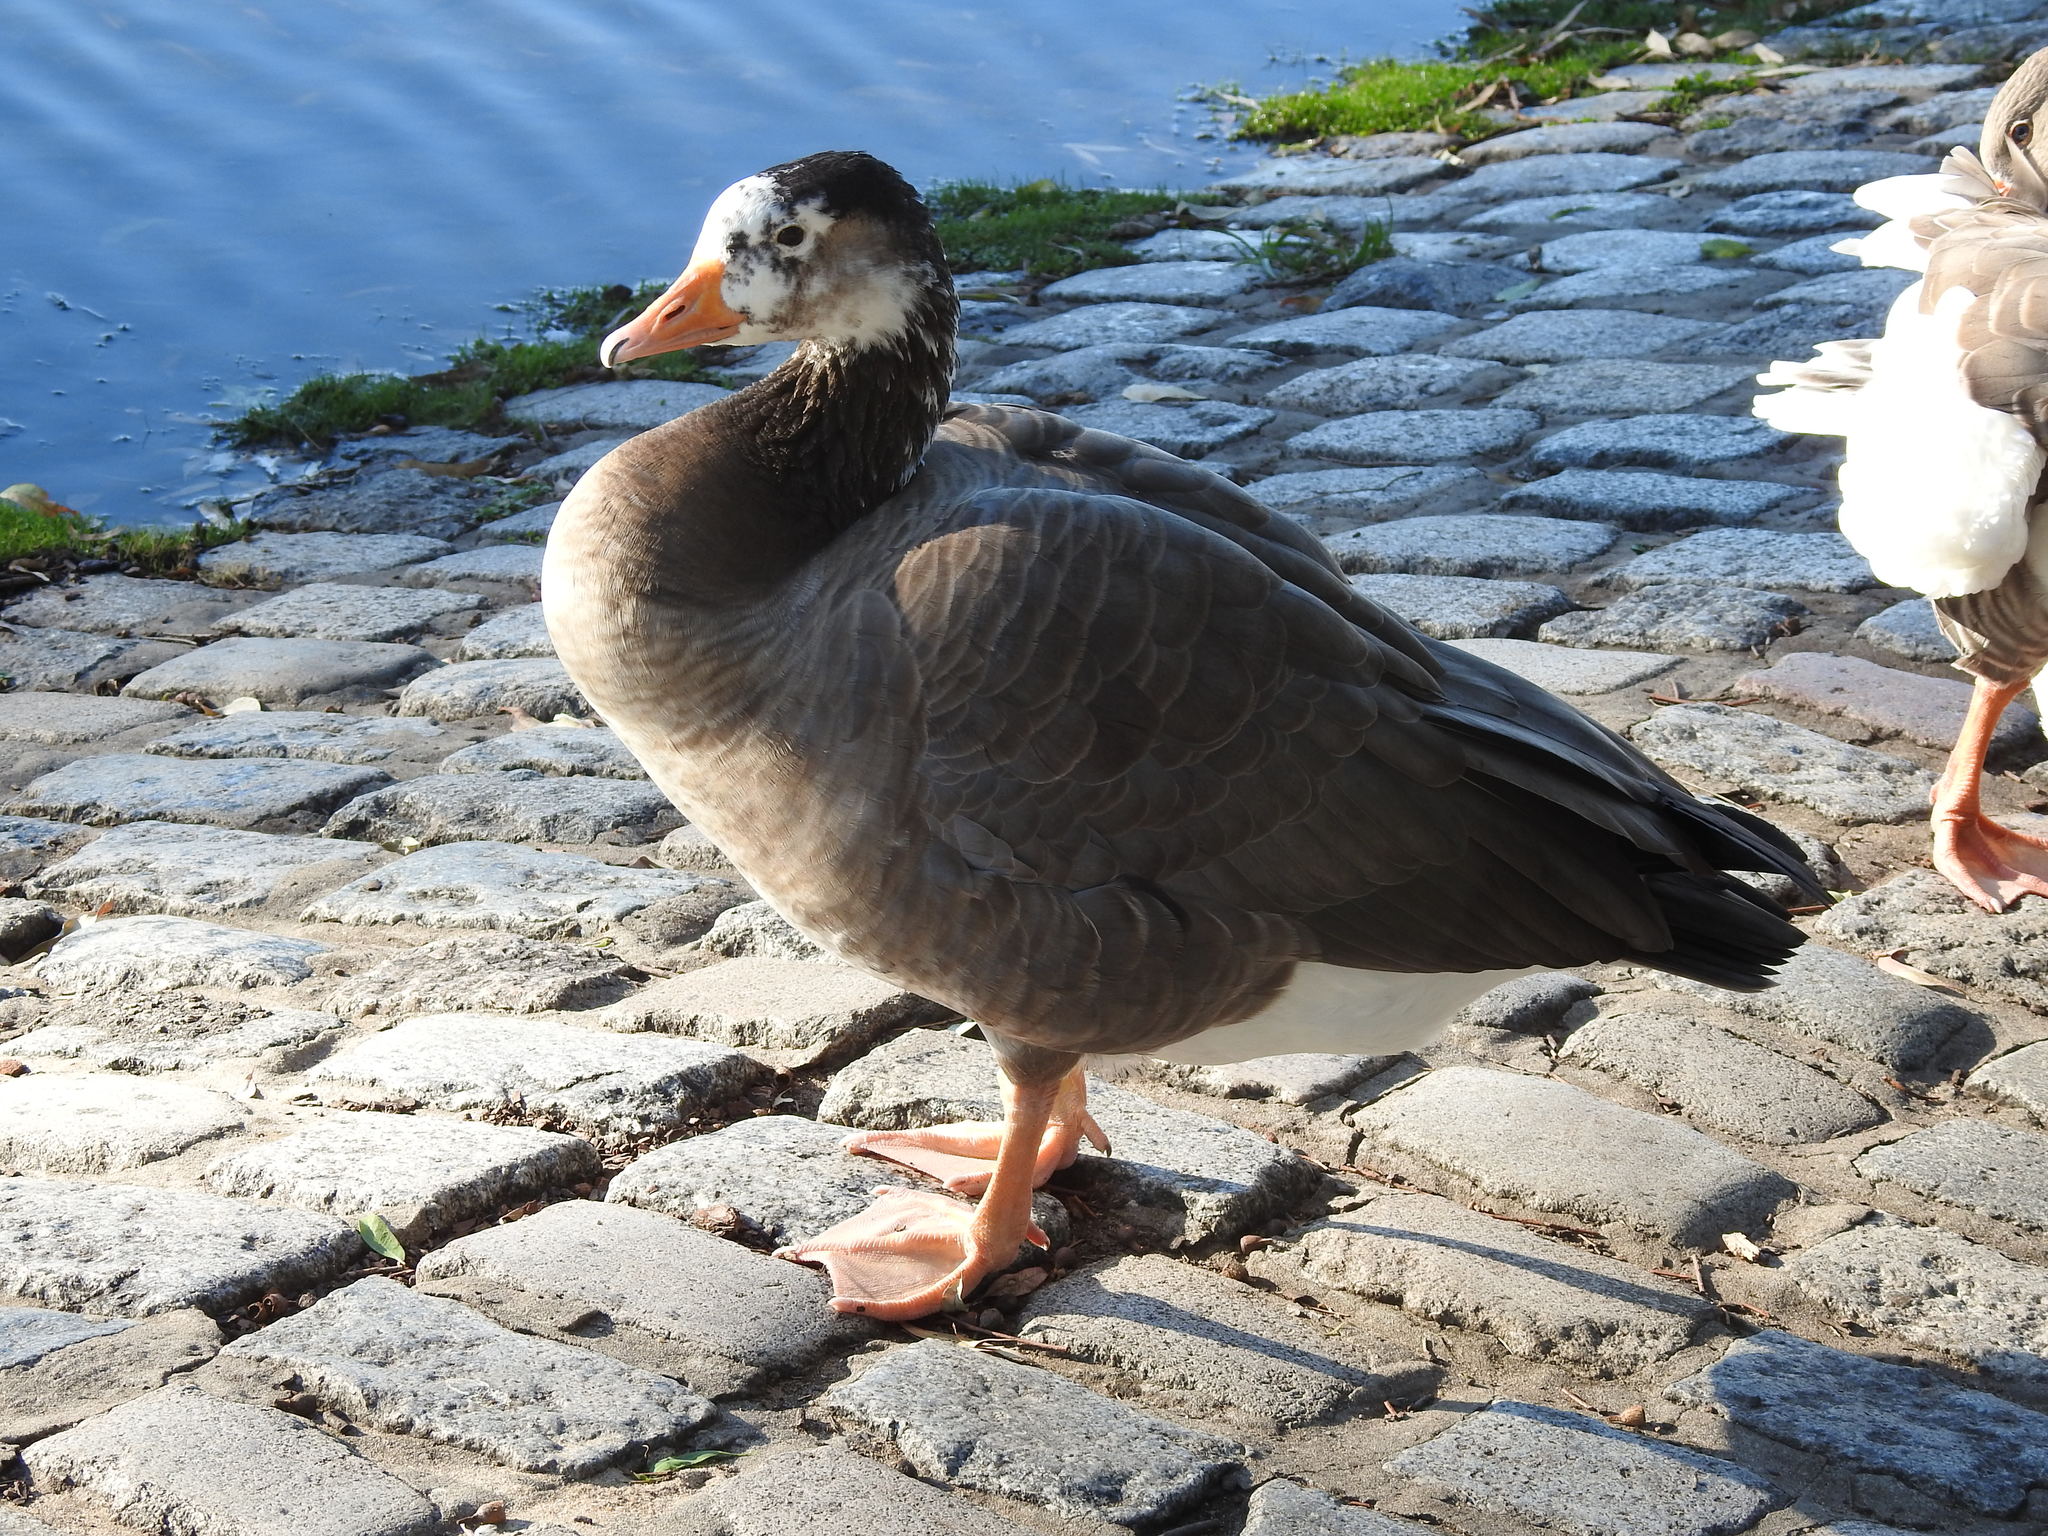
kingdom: Animalia
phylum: Chordata
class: Aves
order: Anseriformes
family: Anatidae
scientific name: Anatidae
